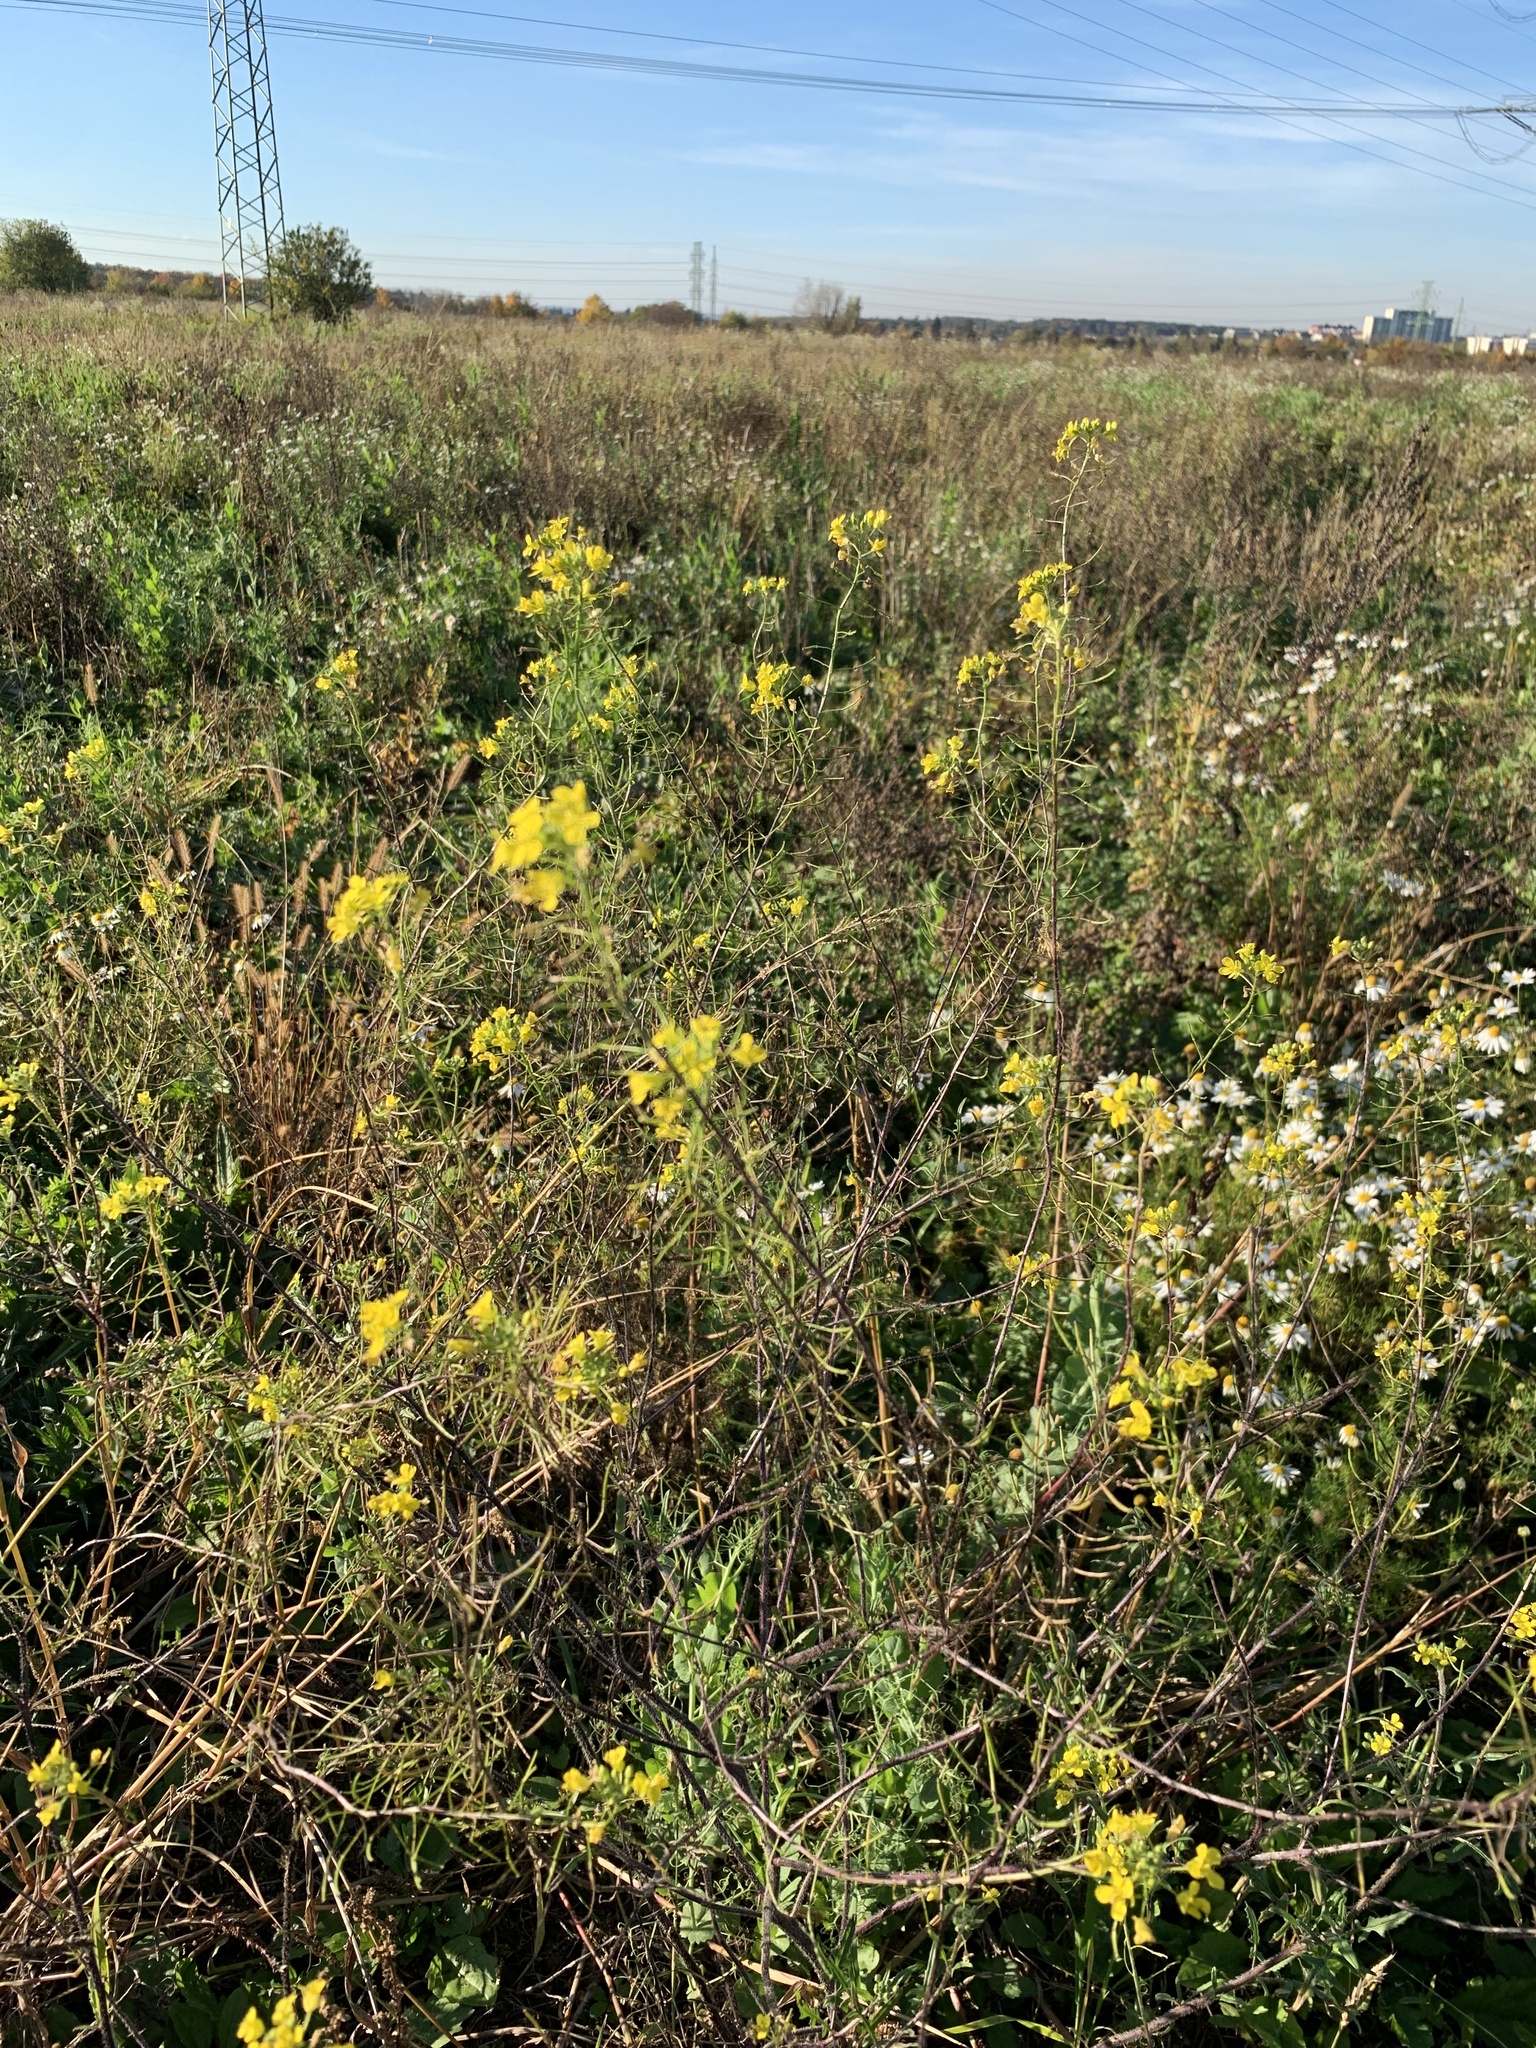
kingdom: Plantae
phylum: Tracheophyta
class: Magnoliopsida
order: Brassicales
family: Brassicaceae
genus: Sisymbrium
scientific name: Sisymbrium loeselii
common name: False london-rocket
